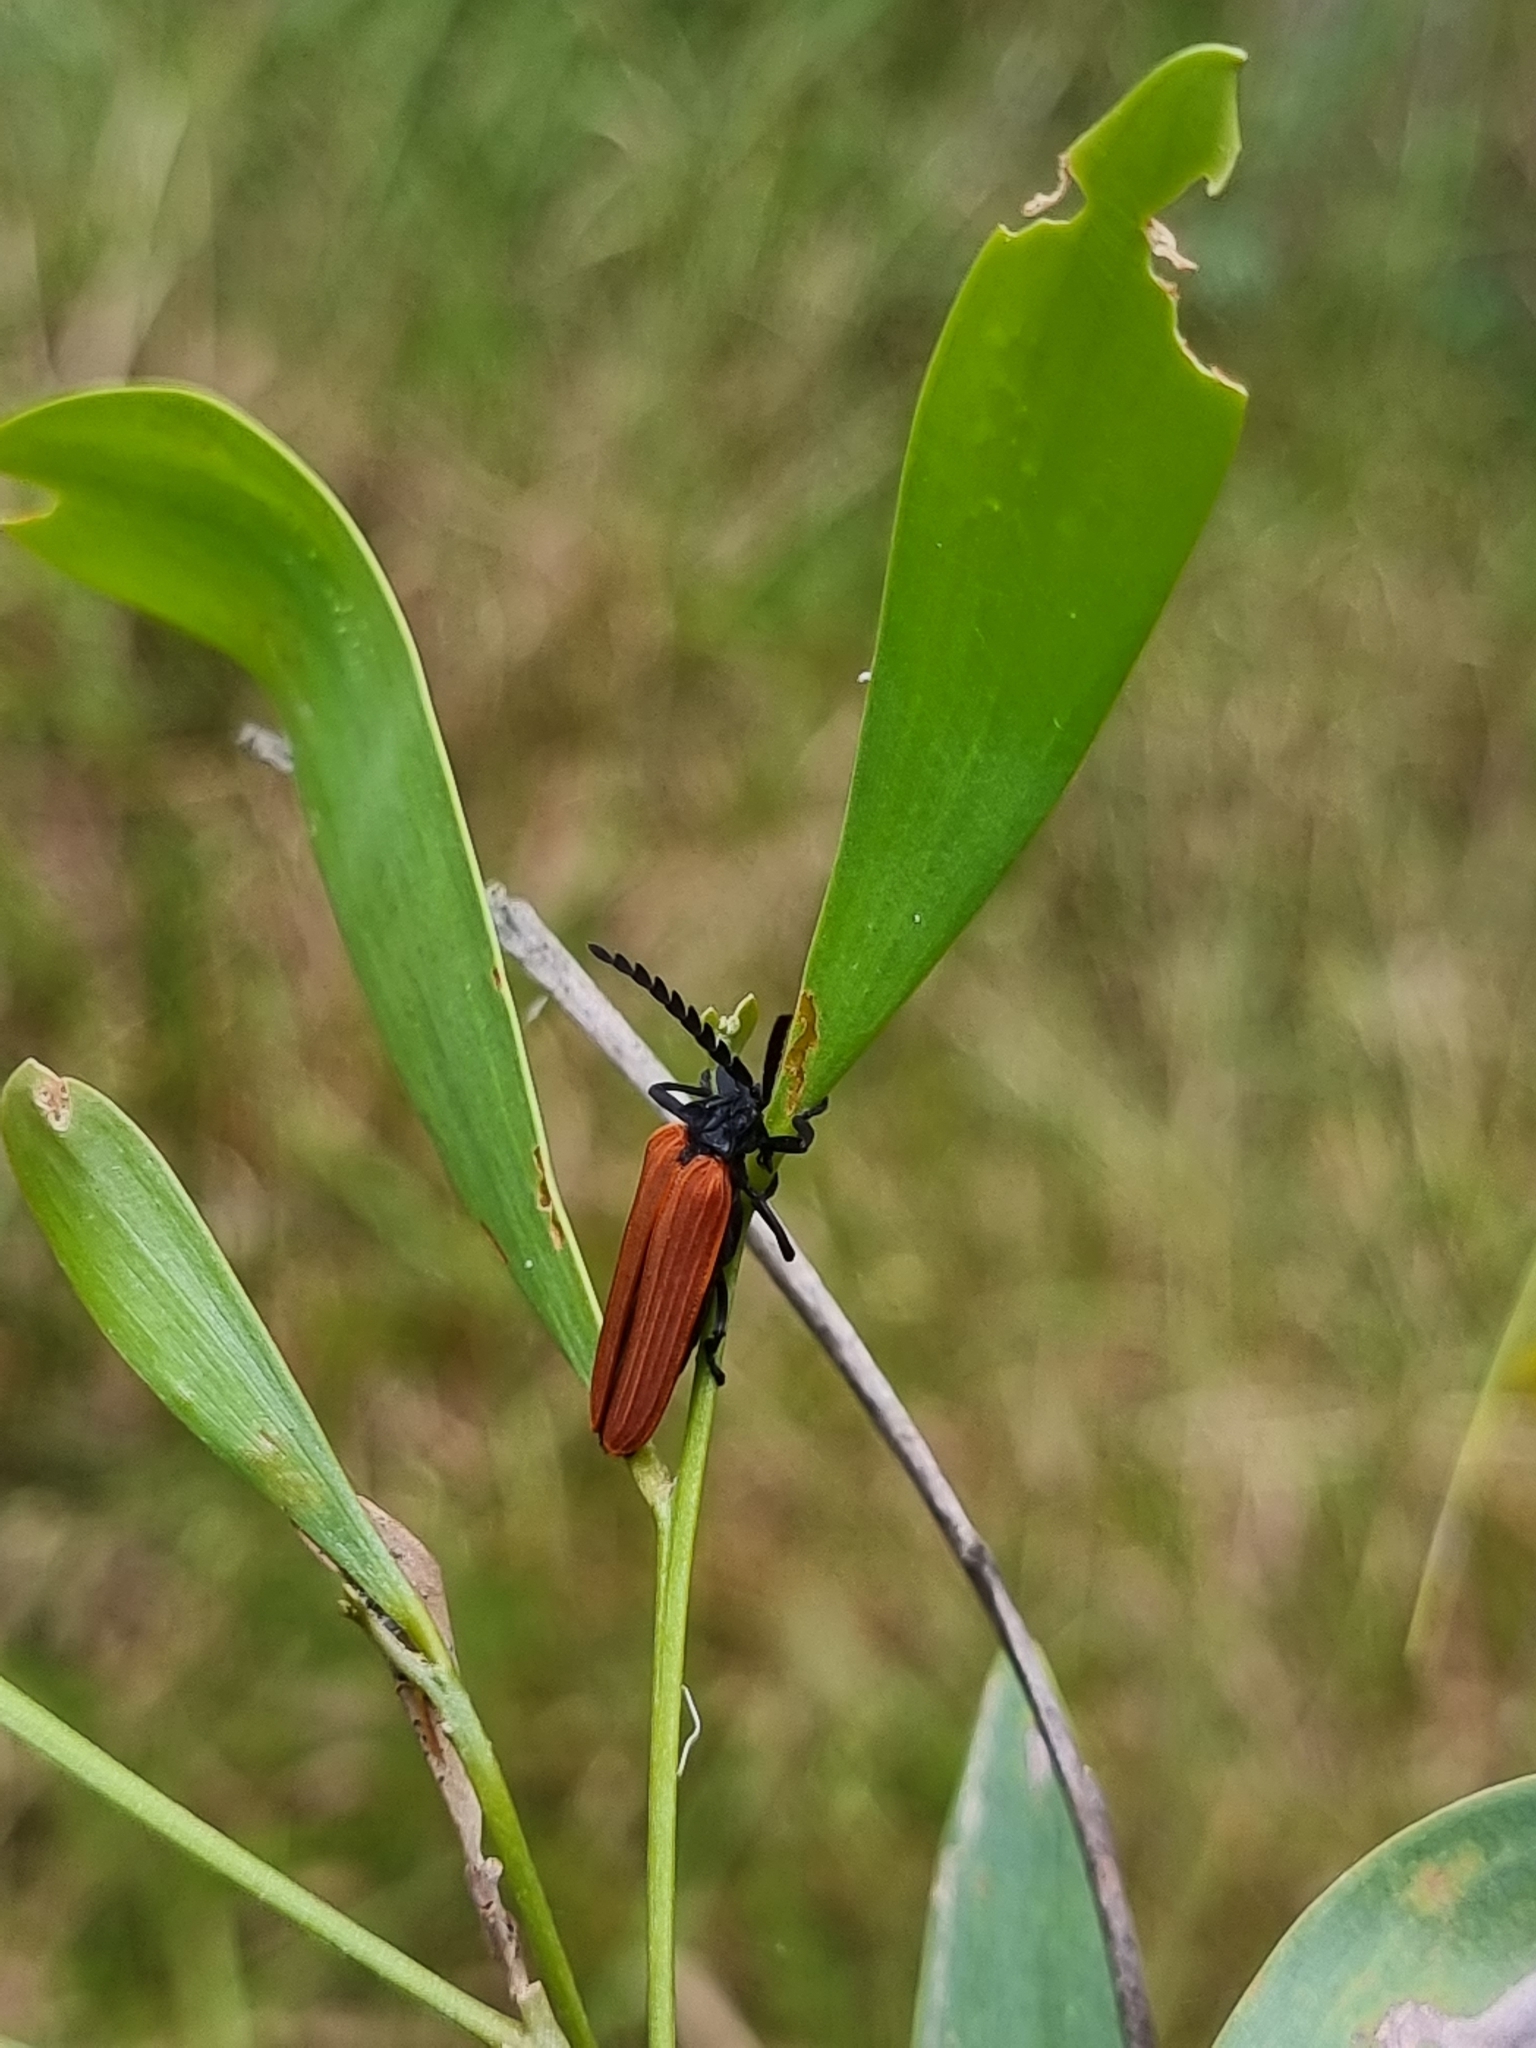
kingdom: Animalia
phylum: Arthropoda
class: Insecta
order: Coleoptera
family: Lycidae
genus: Porrostoma
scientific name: Porrostoma rhipidium
